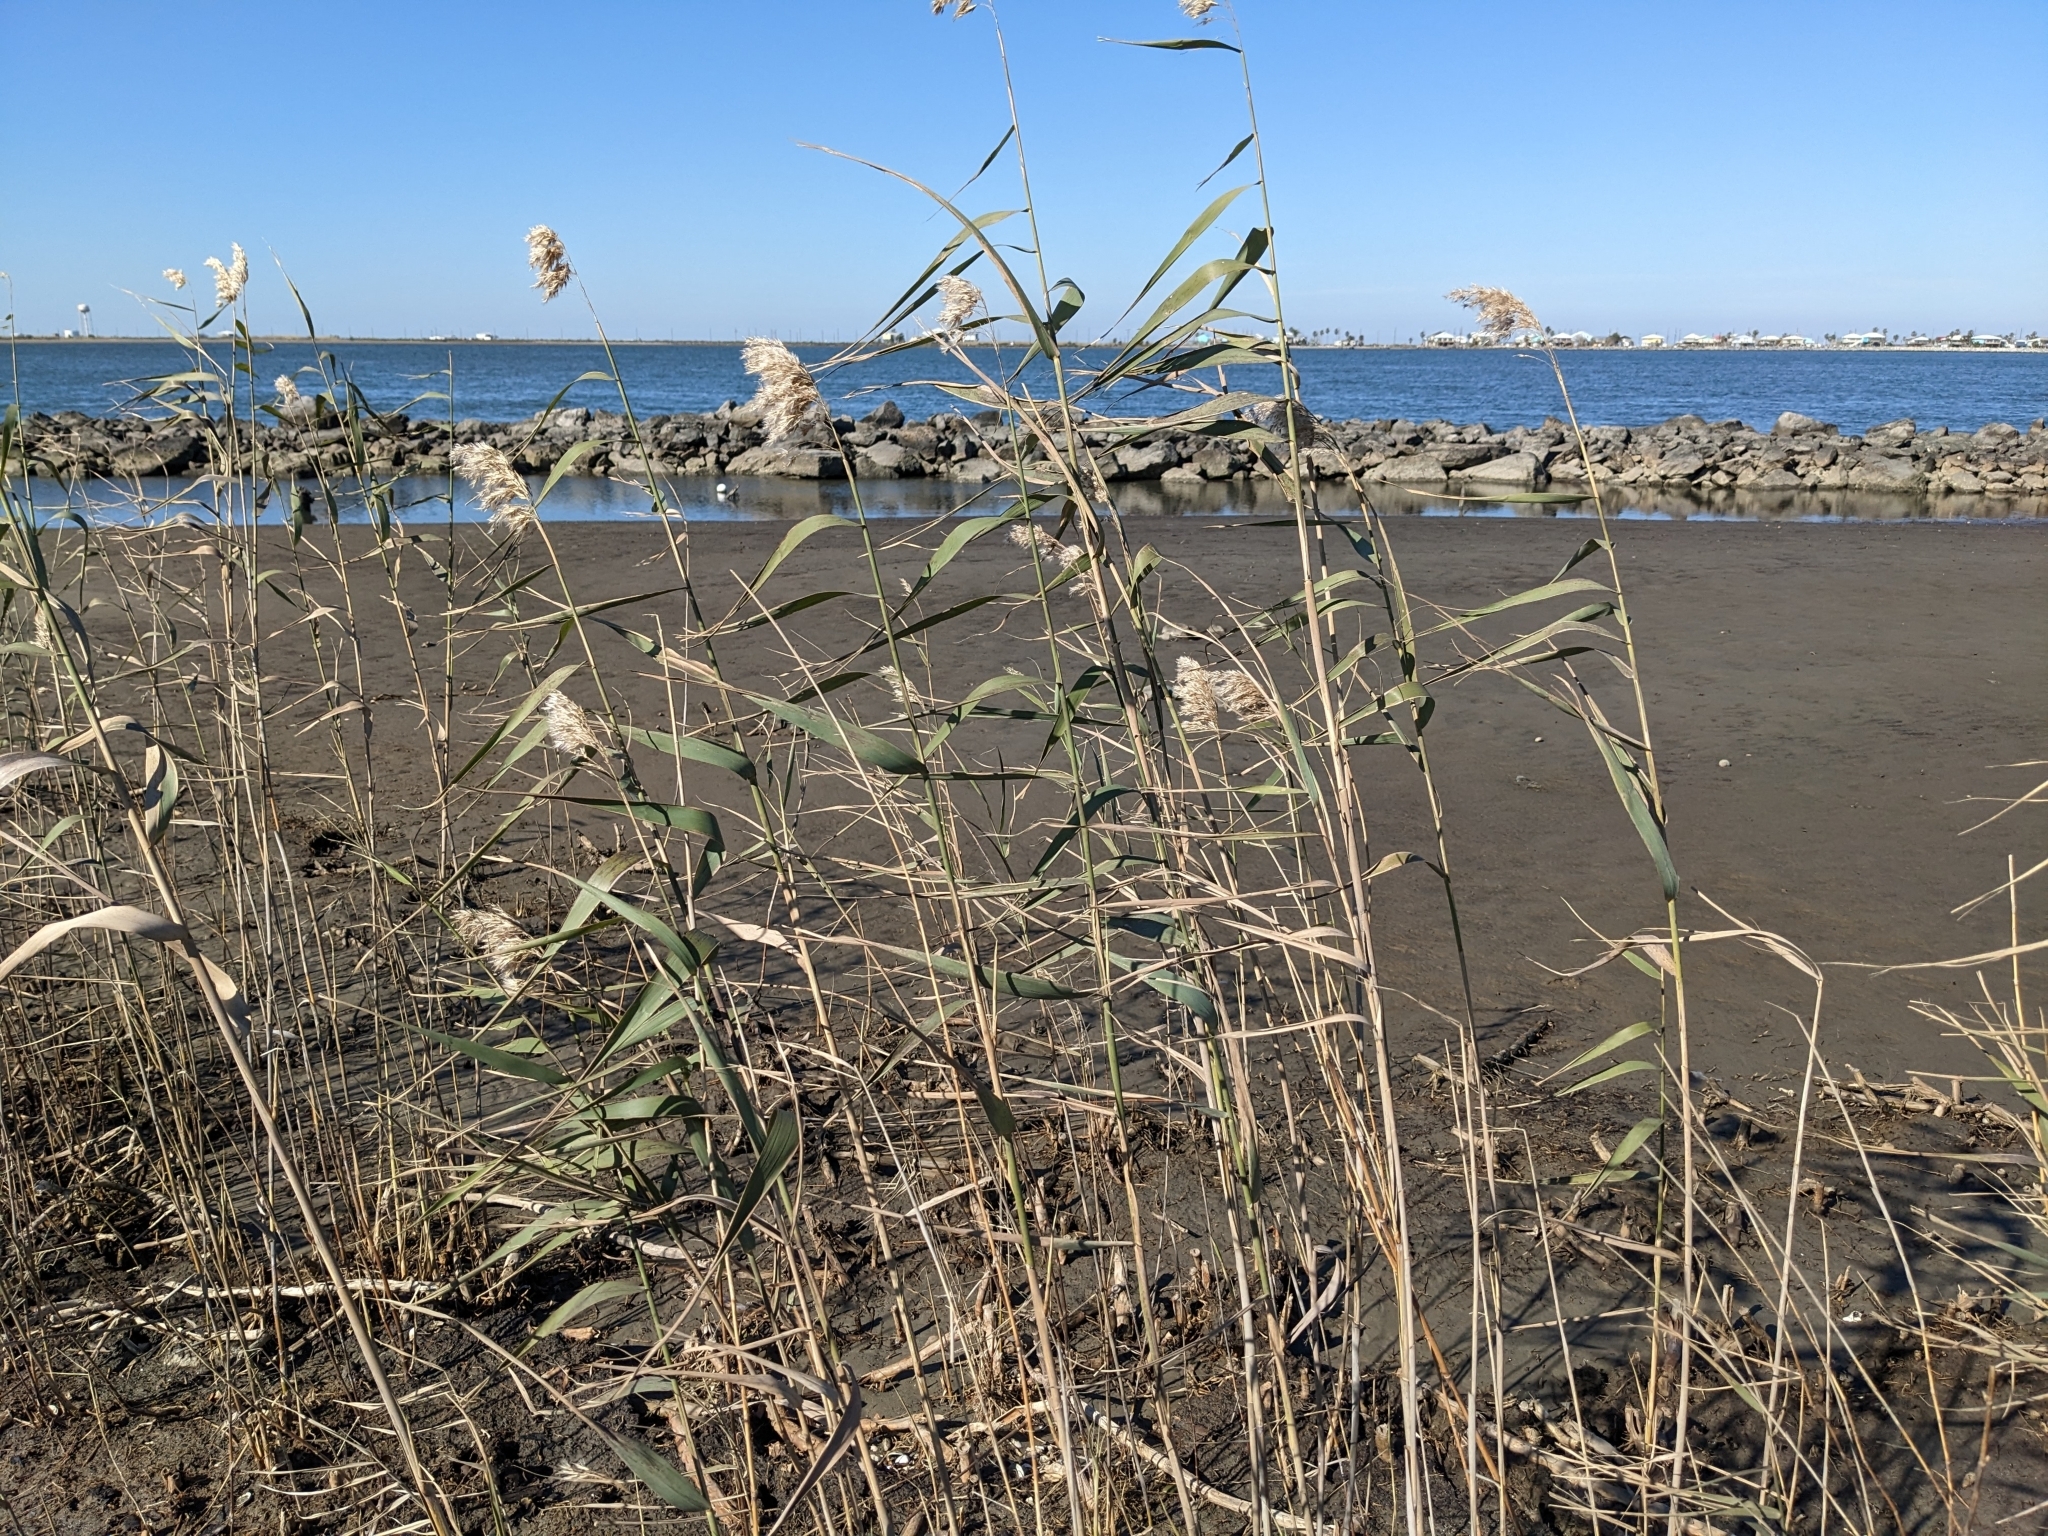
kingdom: Plantae
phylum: Tracheophyta
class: Liliopsida
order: Poales
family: Poaceae
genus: Phragmites
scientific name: Phragmites australis
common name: Common reed
